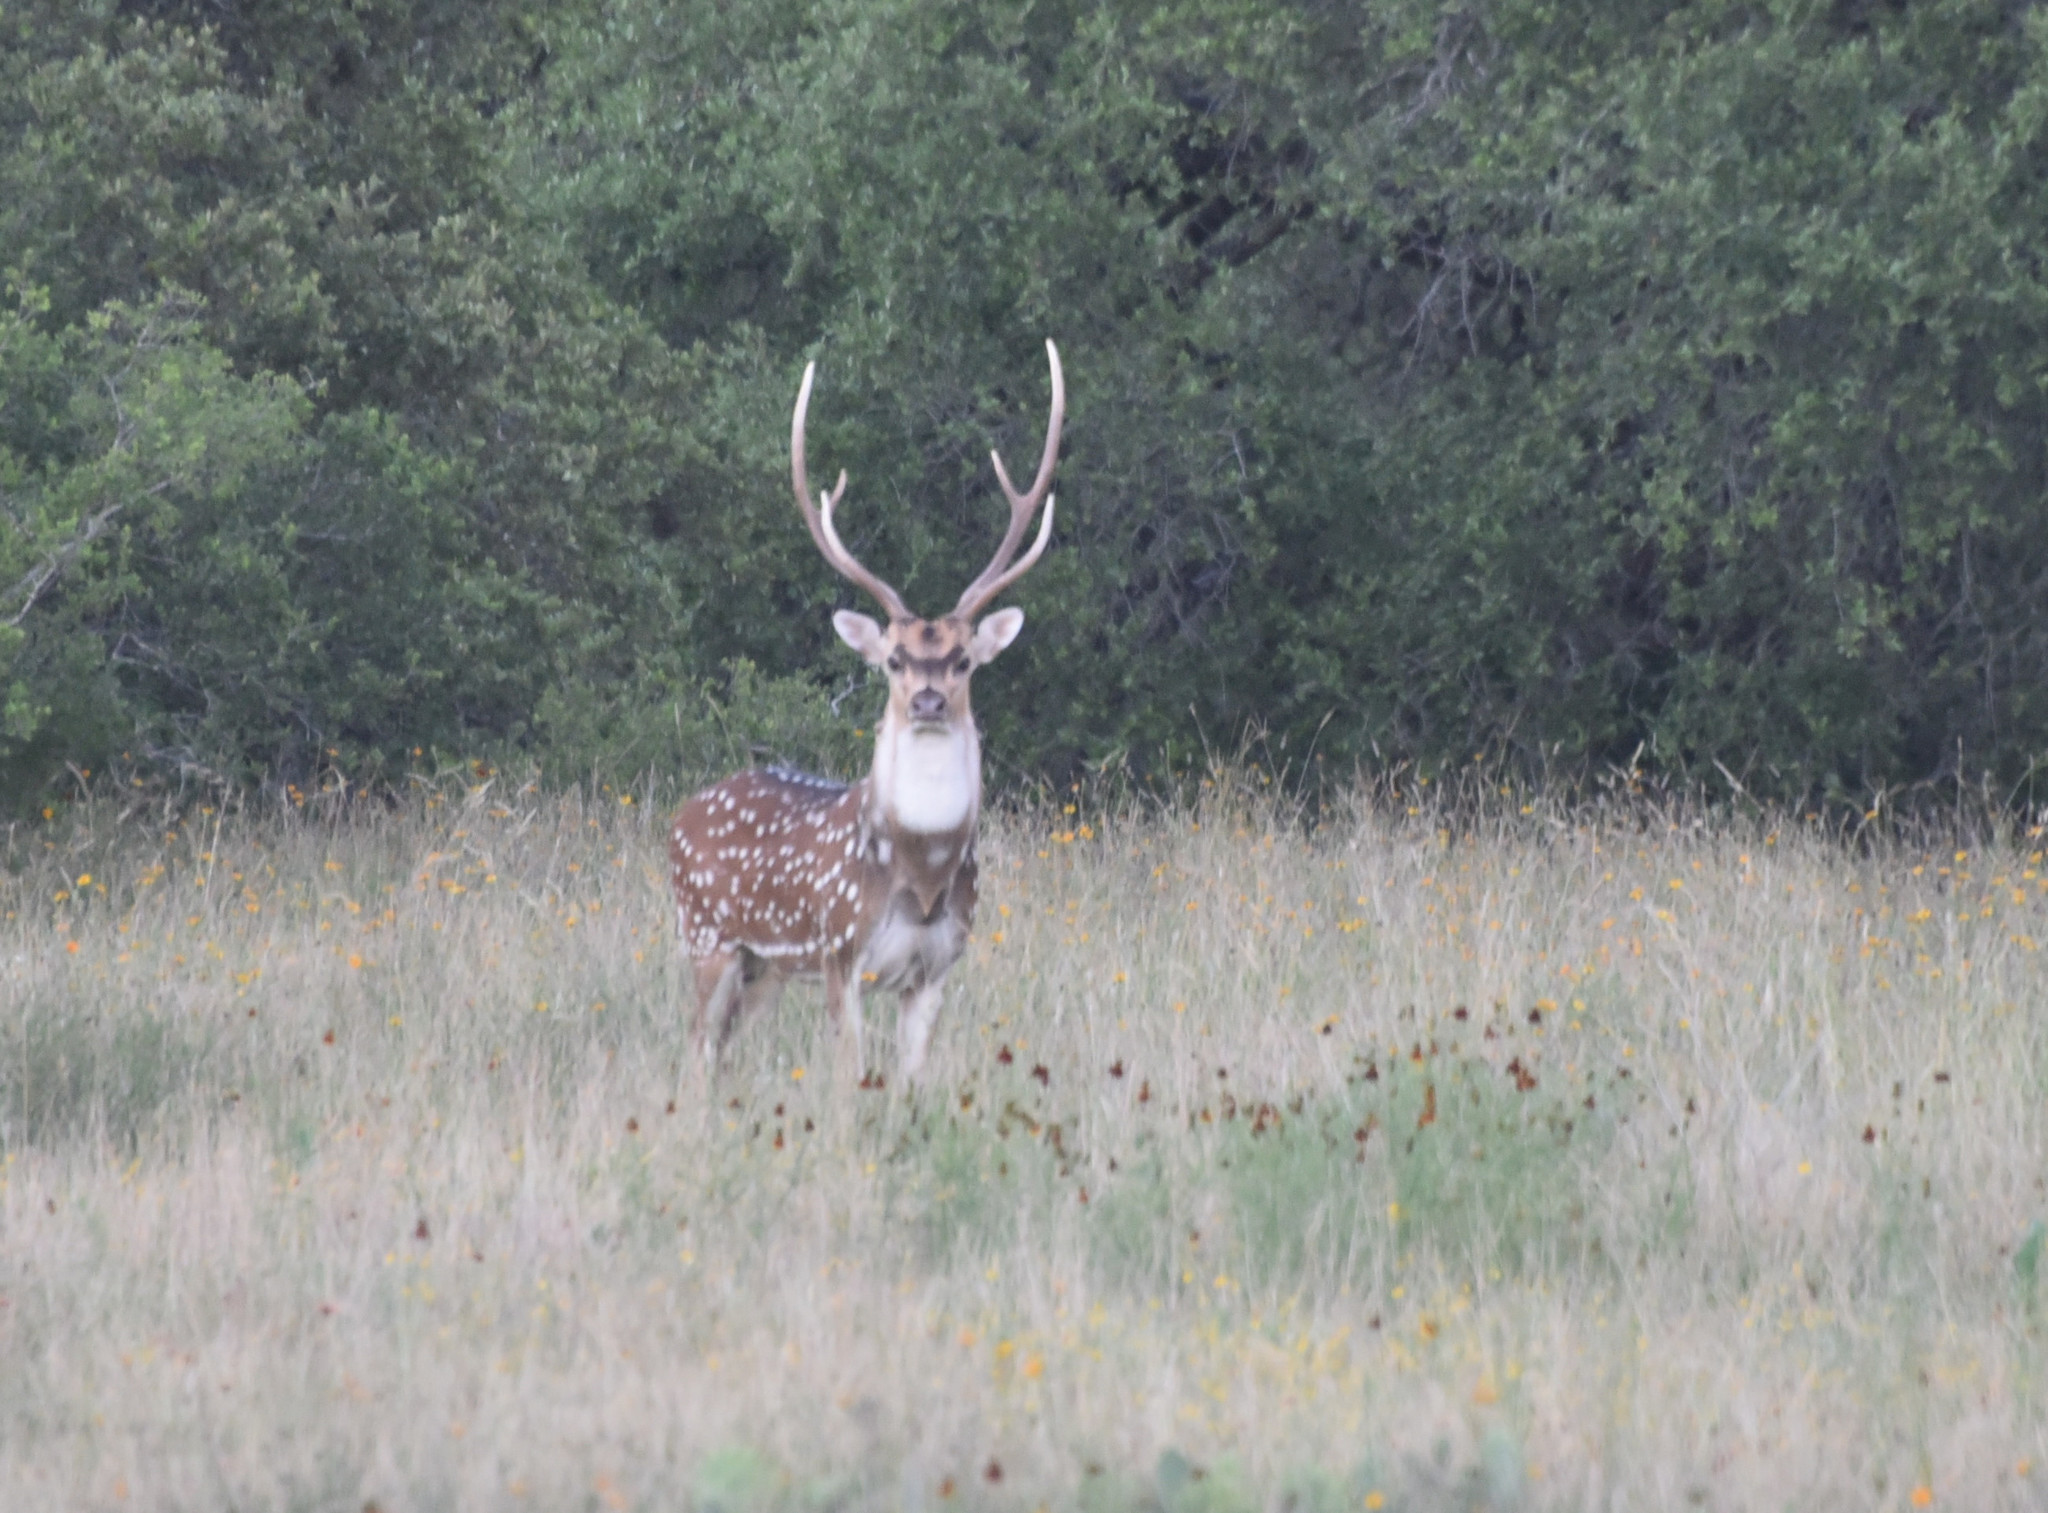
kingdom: Animalia
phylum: Chordata
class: Mammalia
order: Artiodactyla
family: Cervidae
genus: Axis
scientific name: Axis axis
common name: Chital
